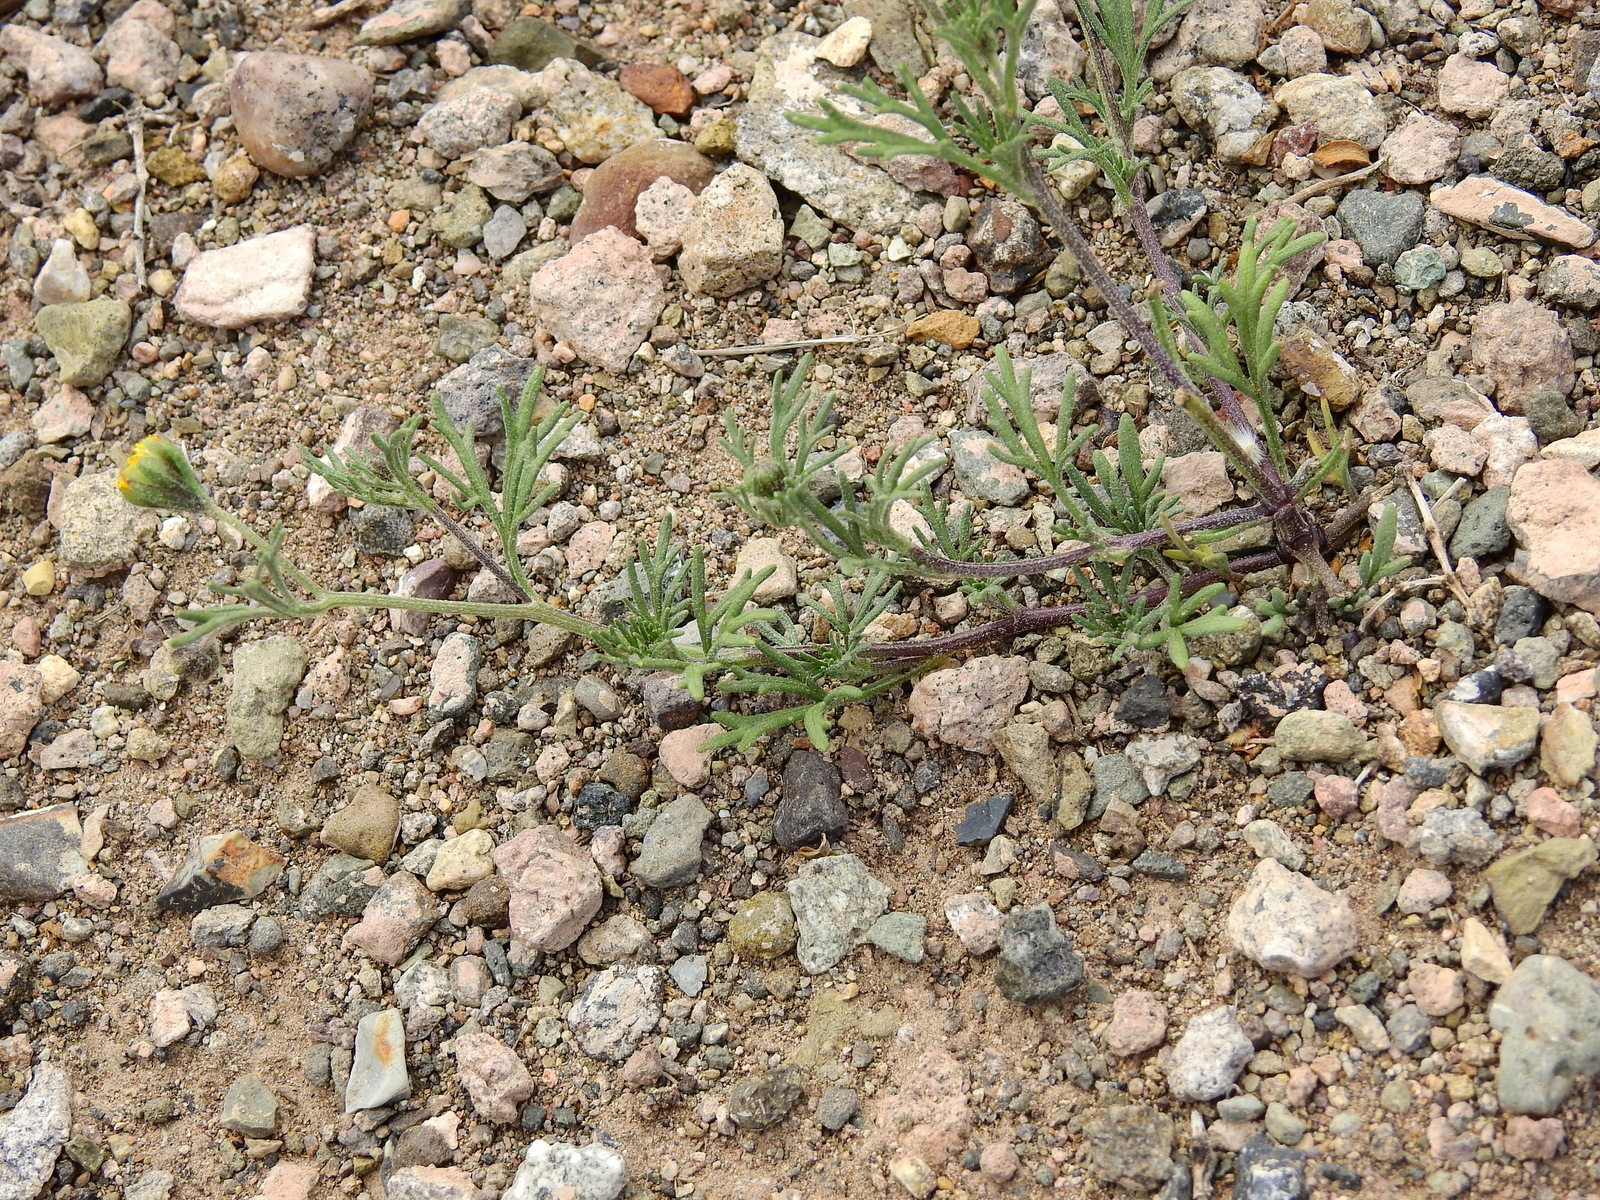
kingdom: Plantae
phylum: Tracheophyta
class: Magnoliopsida
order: Asterales
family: Asteraceae
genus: Picradeniopsis
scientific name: Picradeniopsis multiflora
